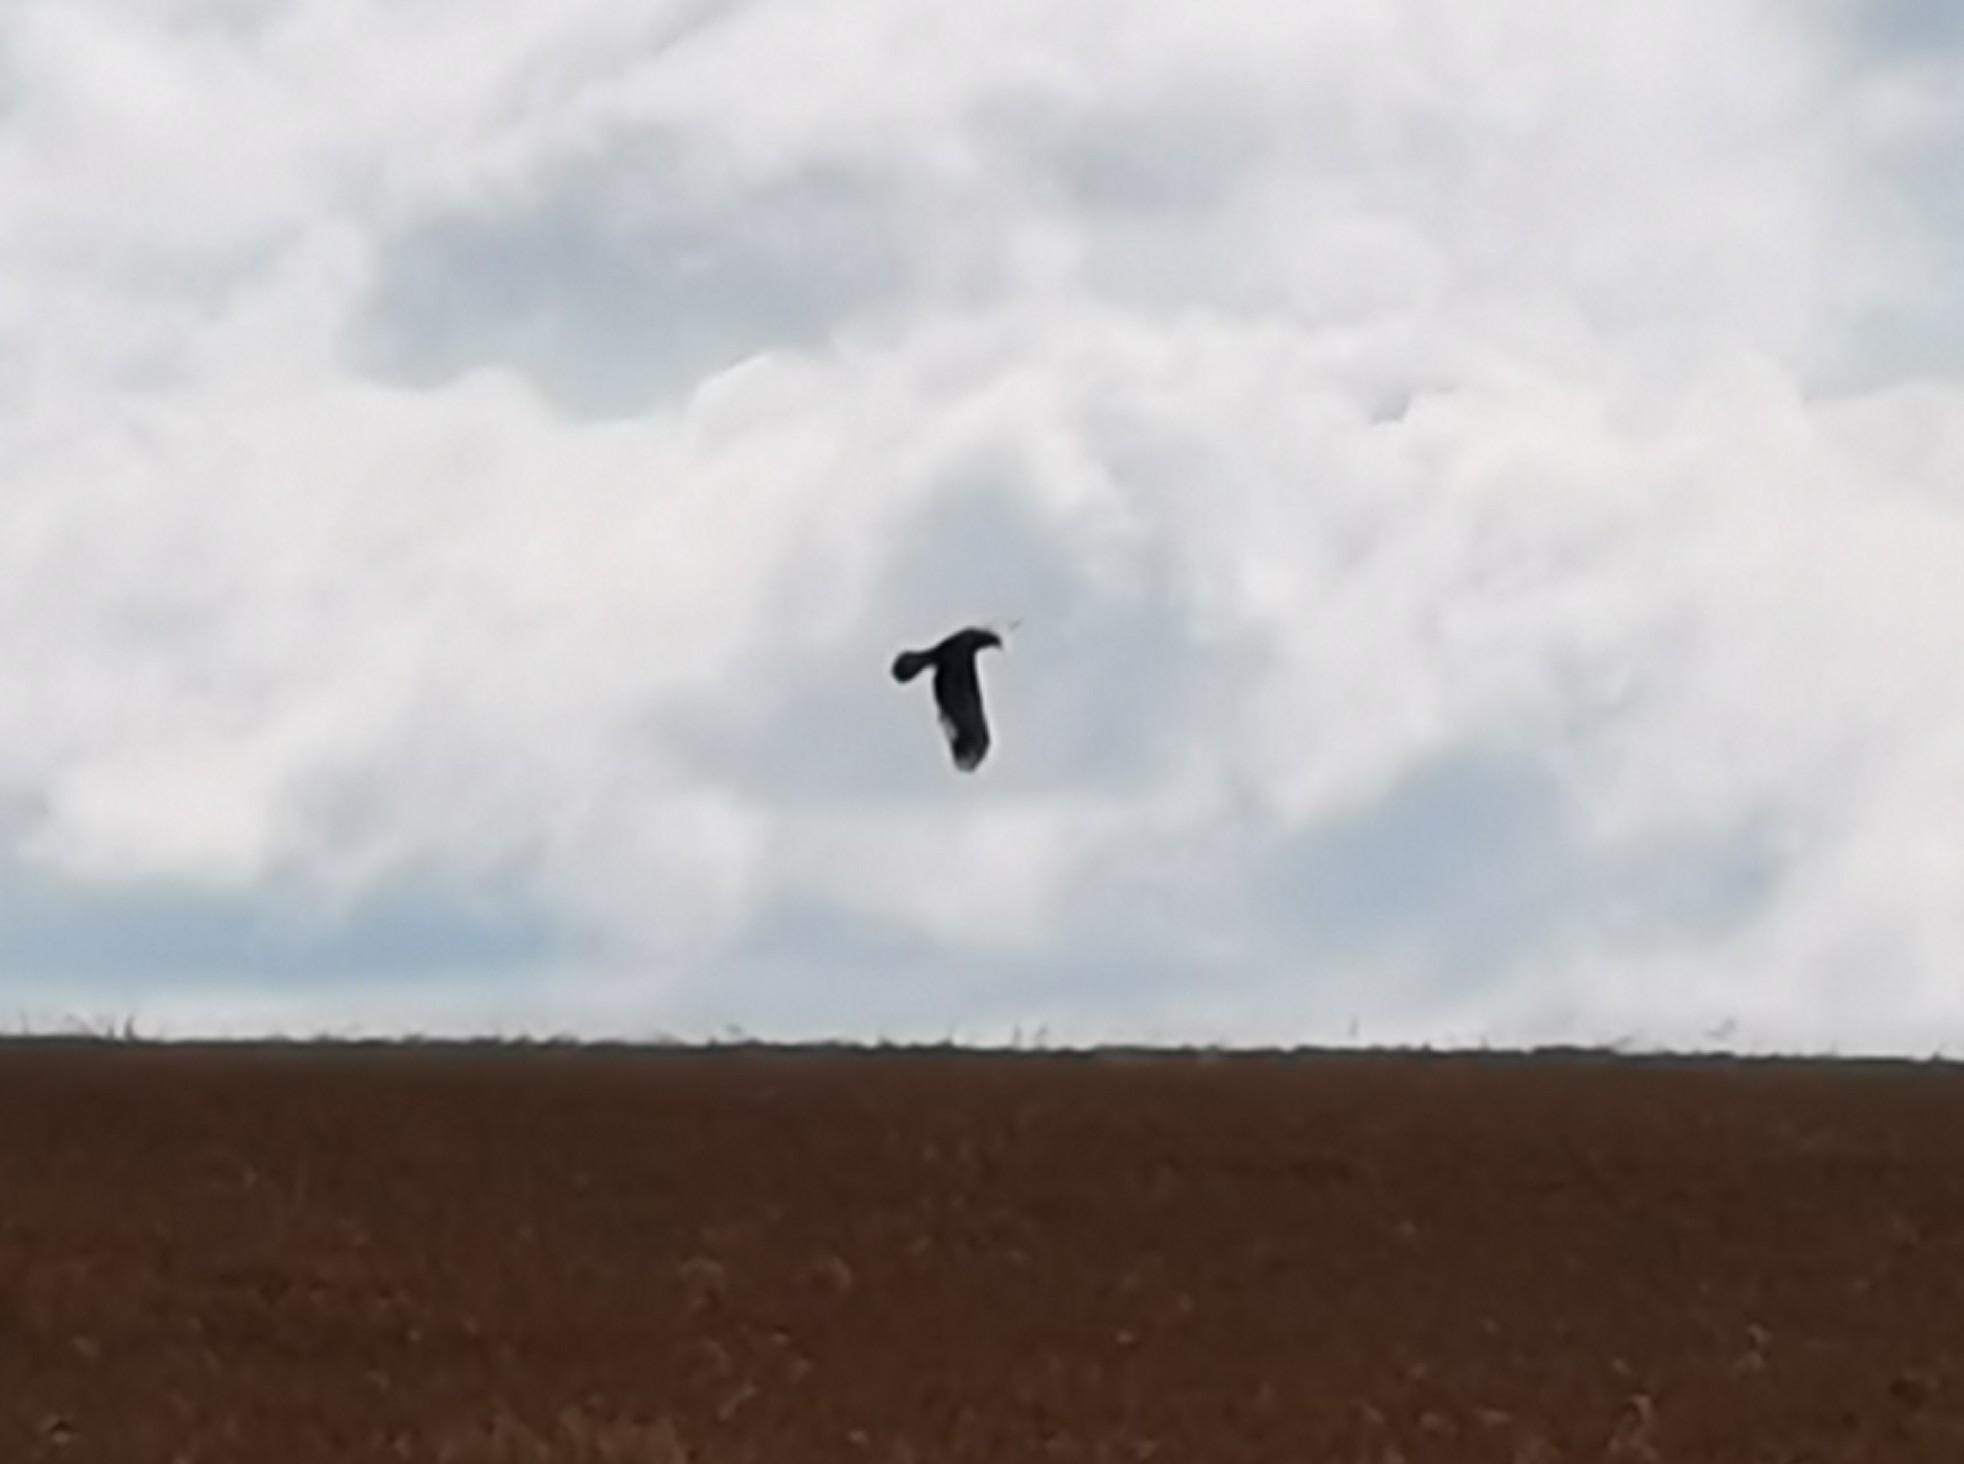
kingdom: Animalia
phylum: Chordata
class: Aves
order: Accipitriformes
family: Accipitridae
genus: Circus
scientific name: Circus aeruginosus
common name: Western marsh harrier
